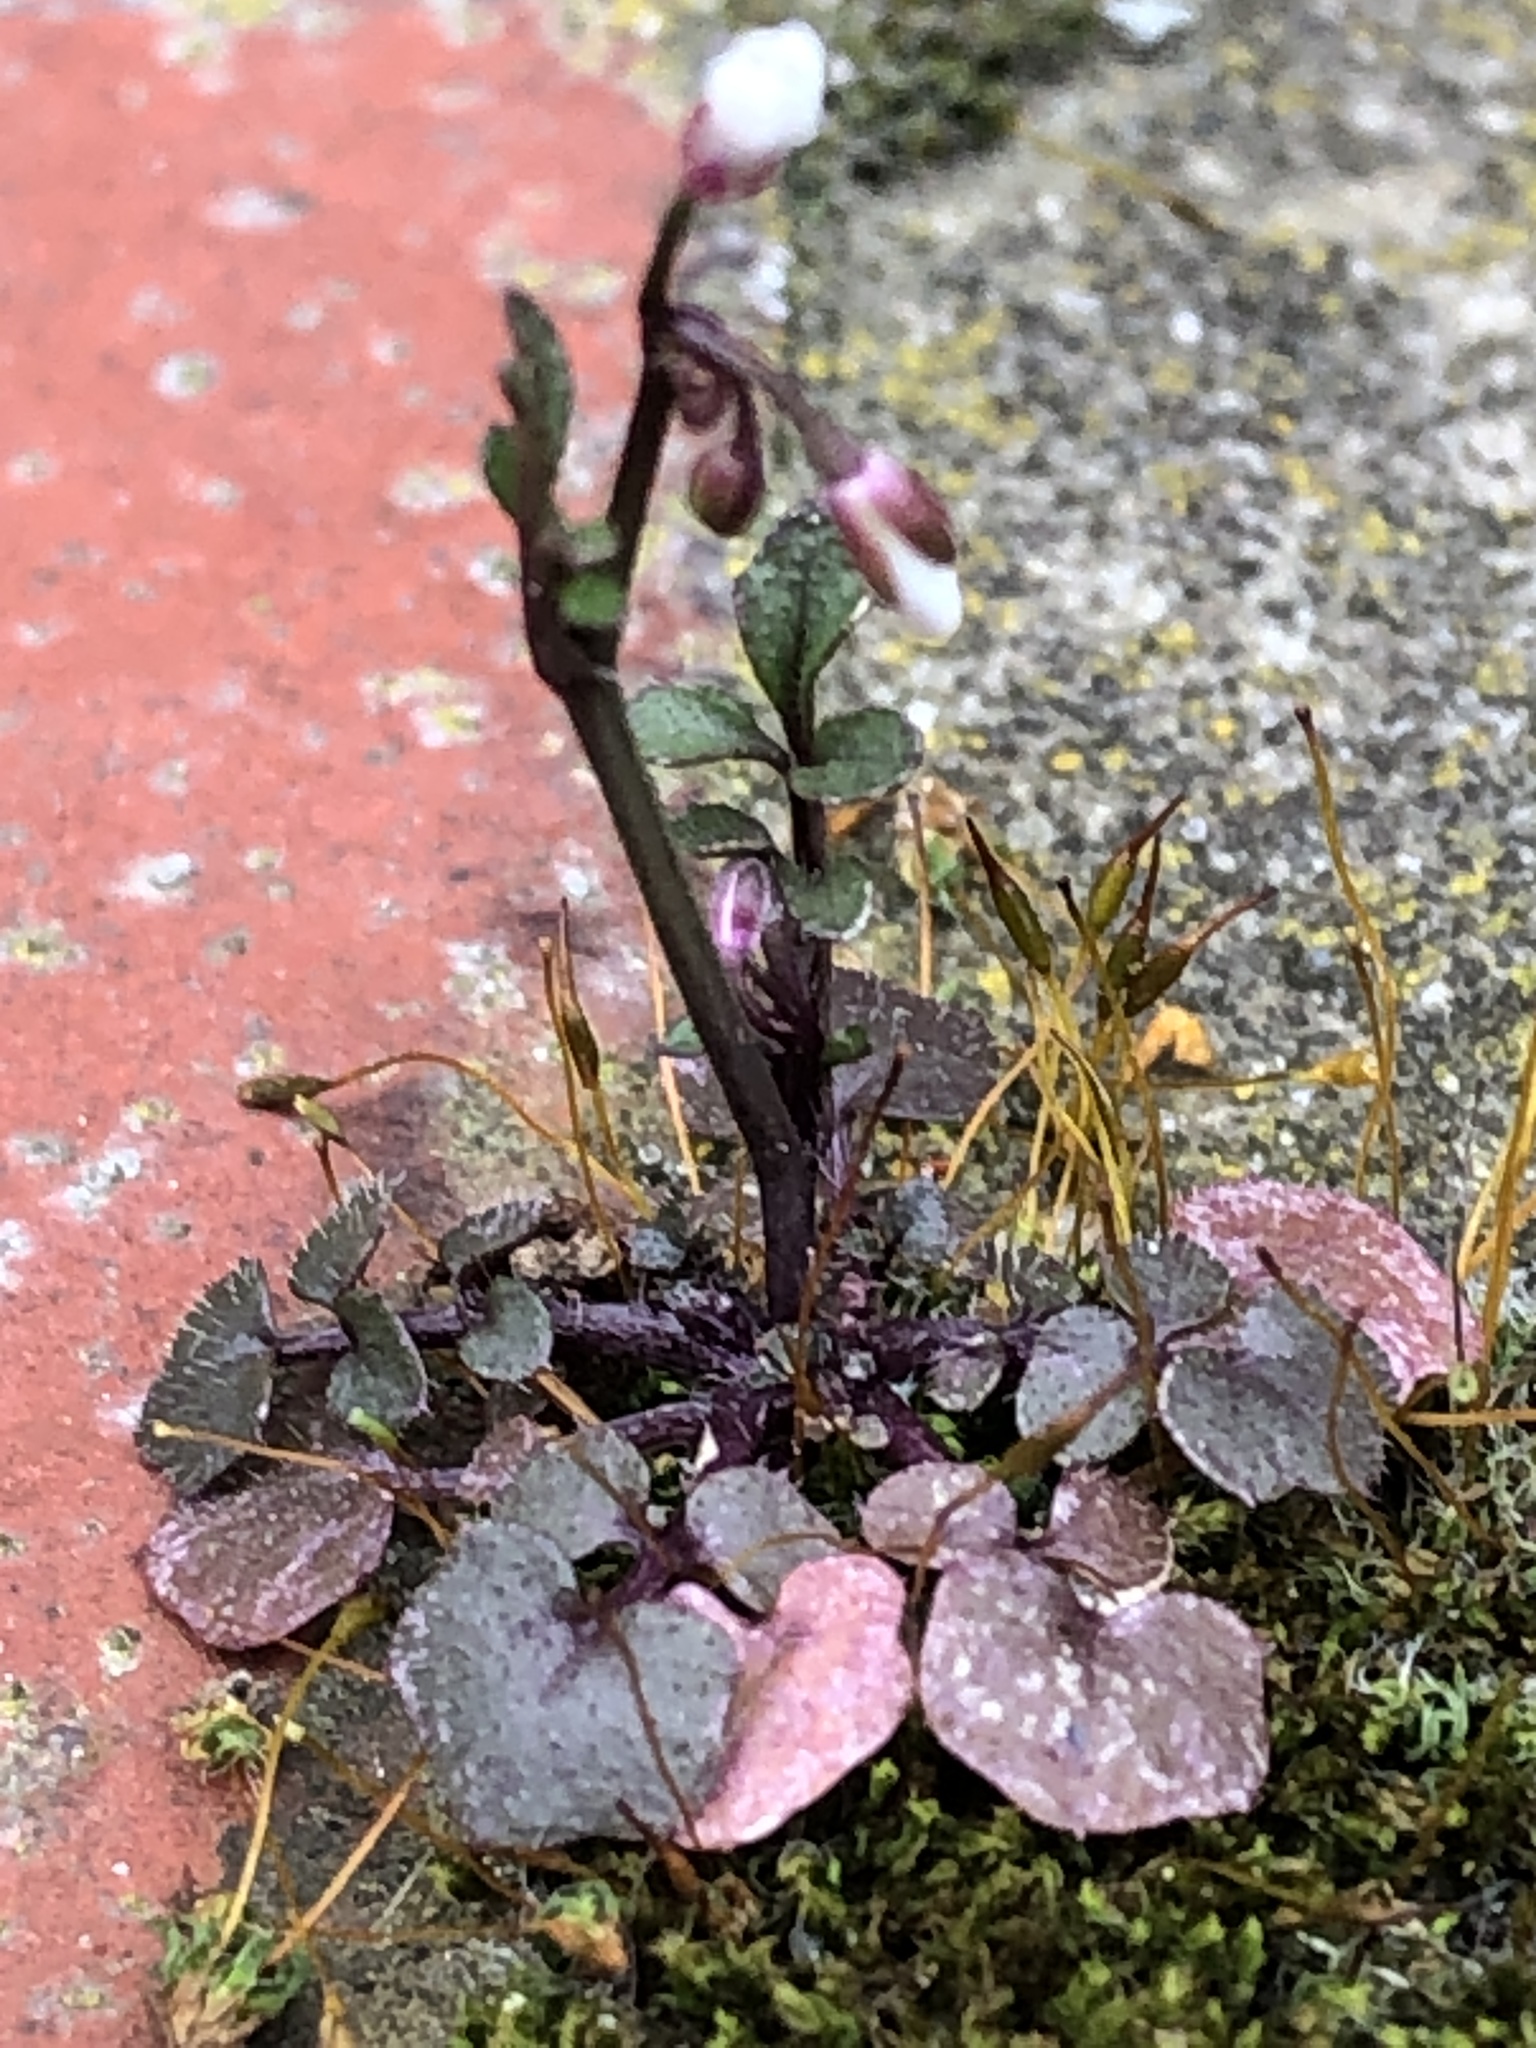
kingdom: Plantae
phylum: Tracheophyta
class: Magnoliopsida
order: Brassicales
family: Brassicaceae
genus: Cardamine
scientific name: Cardamine hirsuta
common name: Hairy bittercress
